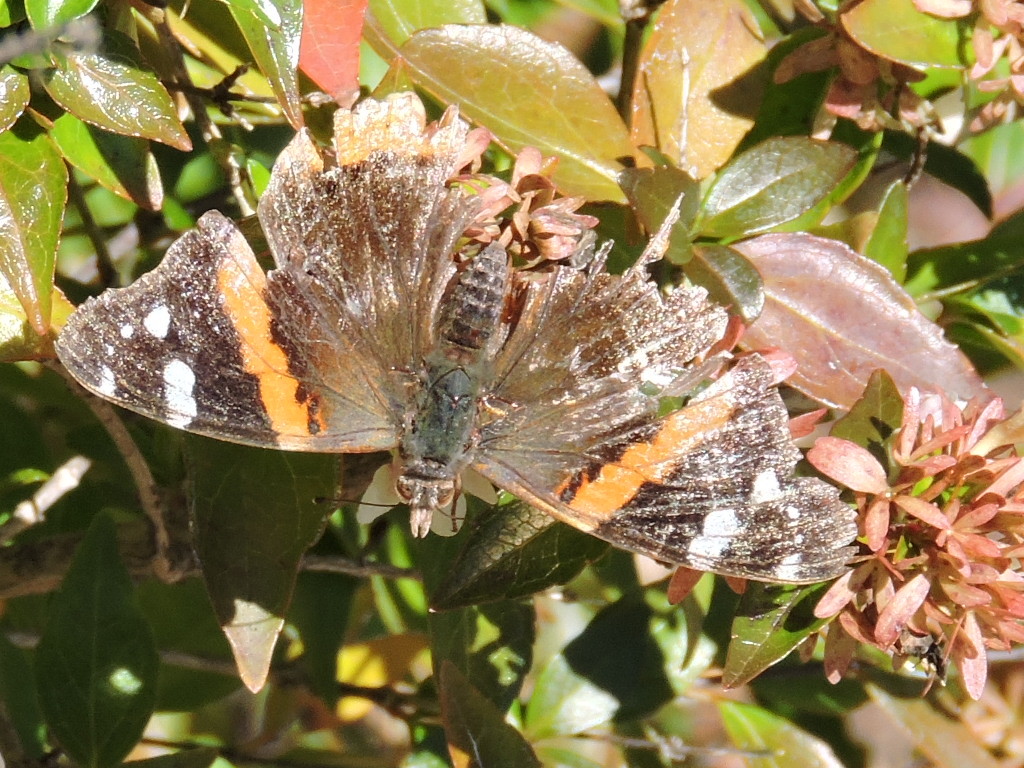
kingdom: Animalia
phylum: Arthropoda
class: Insecta
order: Lepidoptera
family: Nymphalidae
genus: Vanessa
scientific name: Vanessa atalanta
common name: Red admiral
